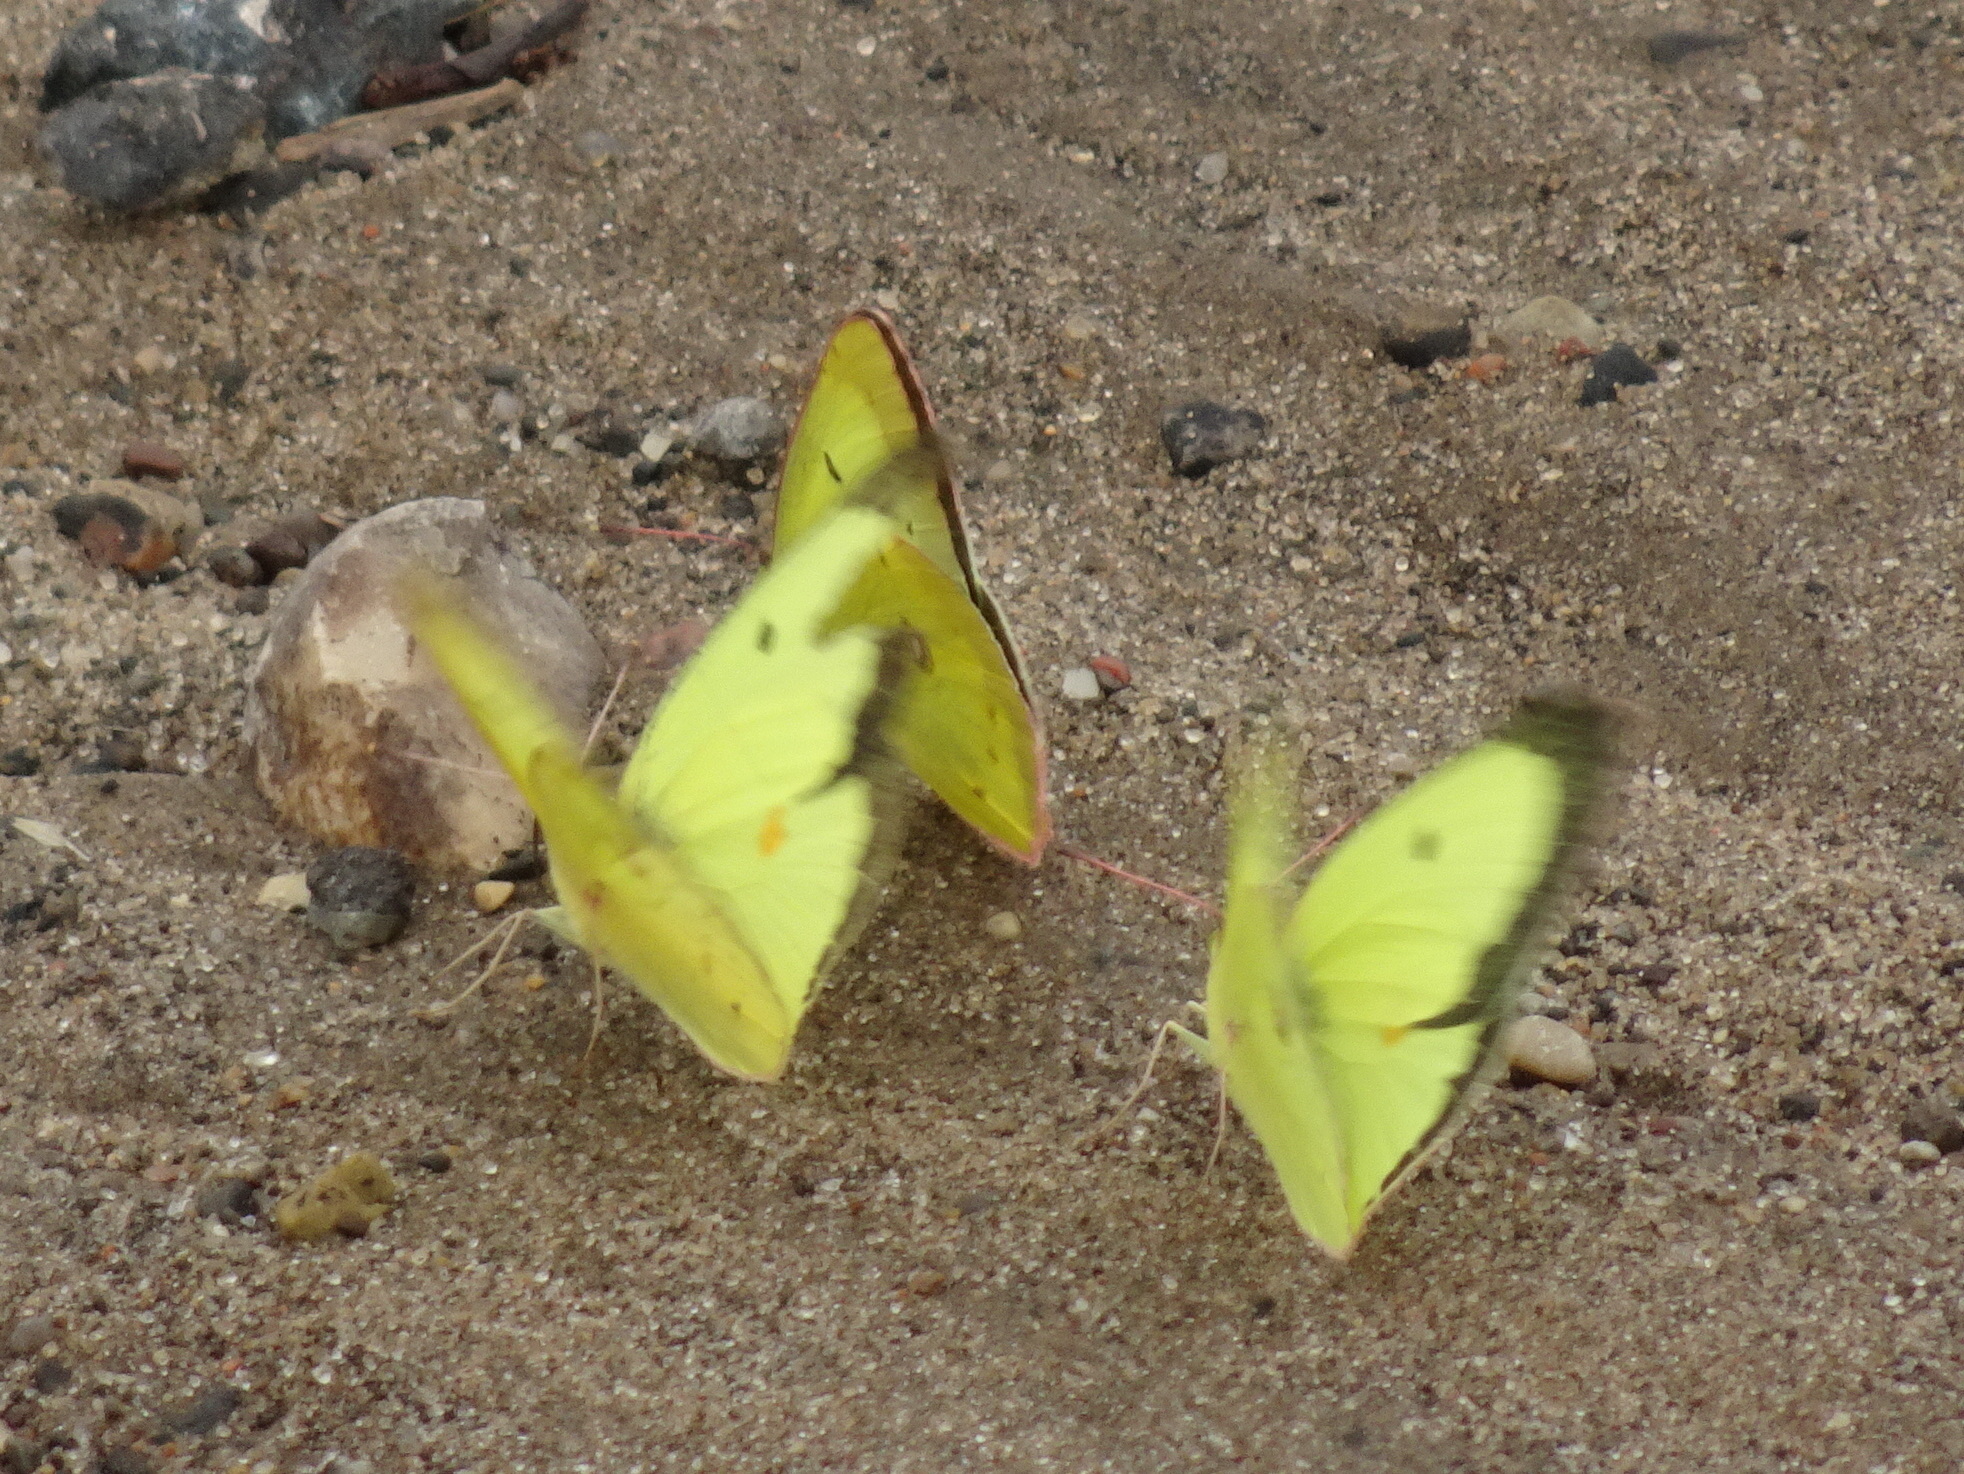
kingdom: Animalia
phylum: Arthropoda
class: Insecta
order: Lepidoptera
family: Pieridae
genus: Colias
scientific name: Colias philodice
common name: Clouded sulphur
